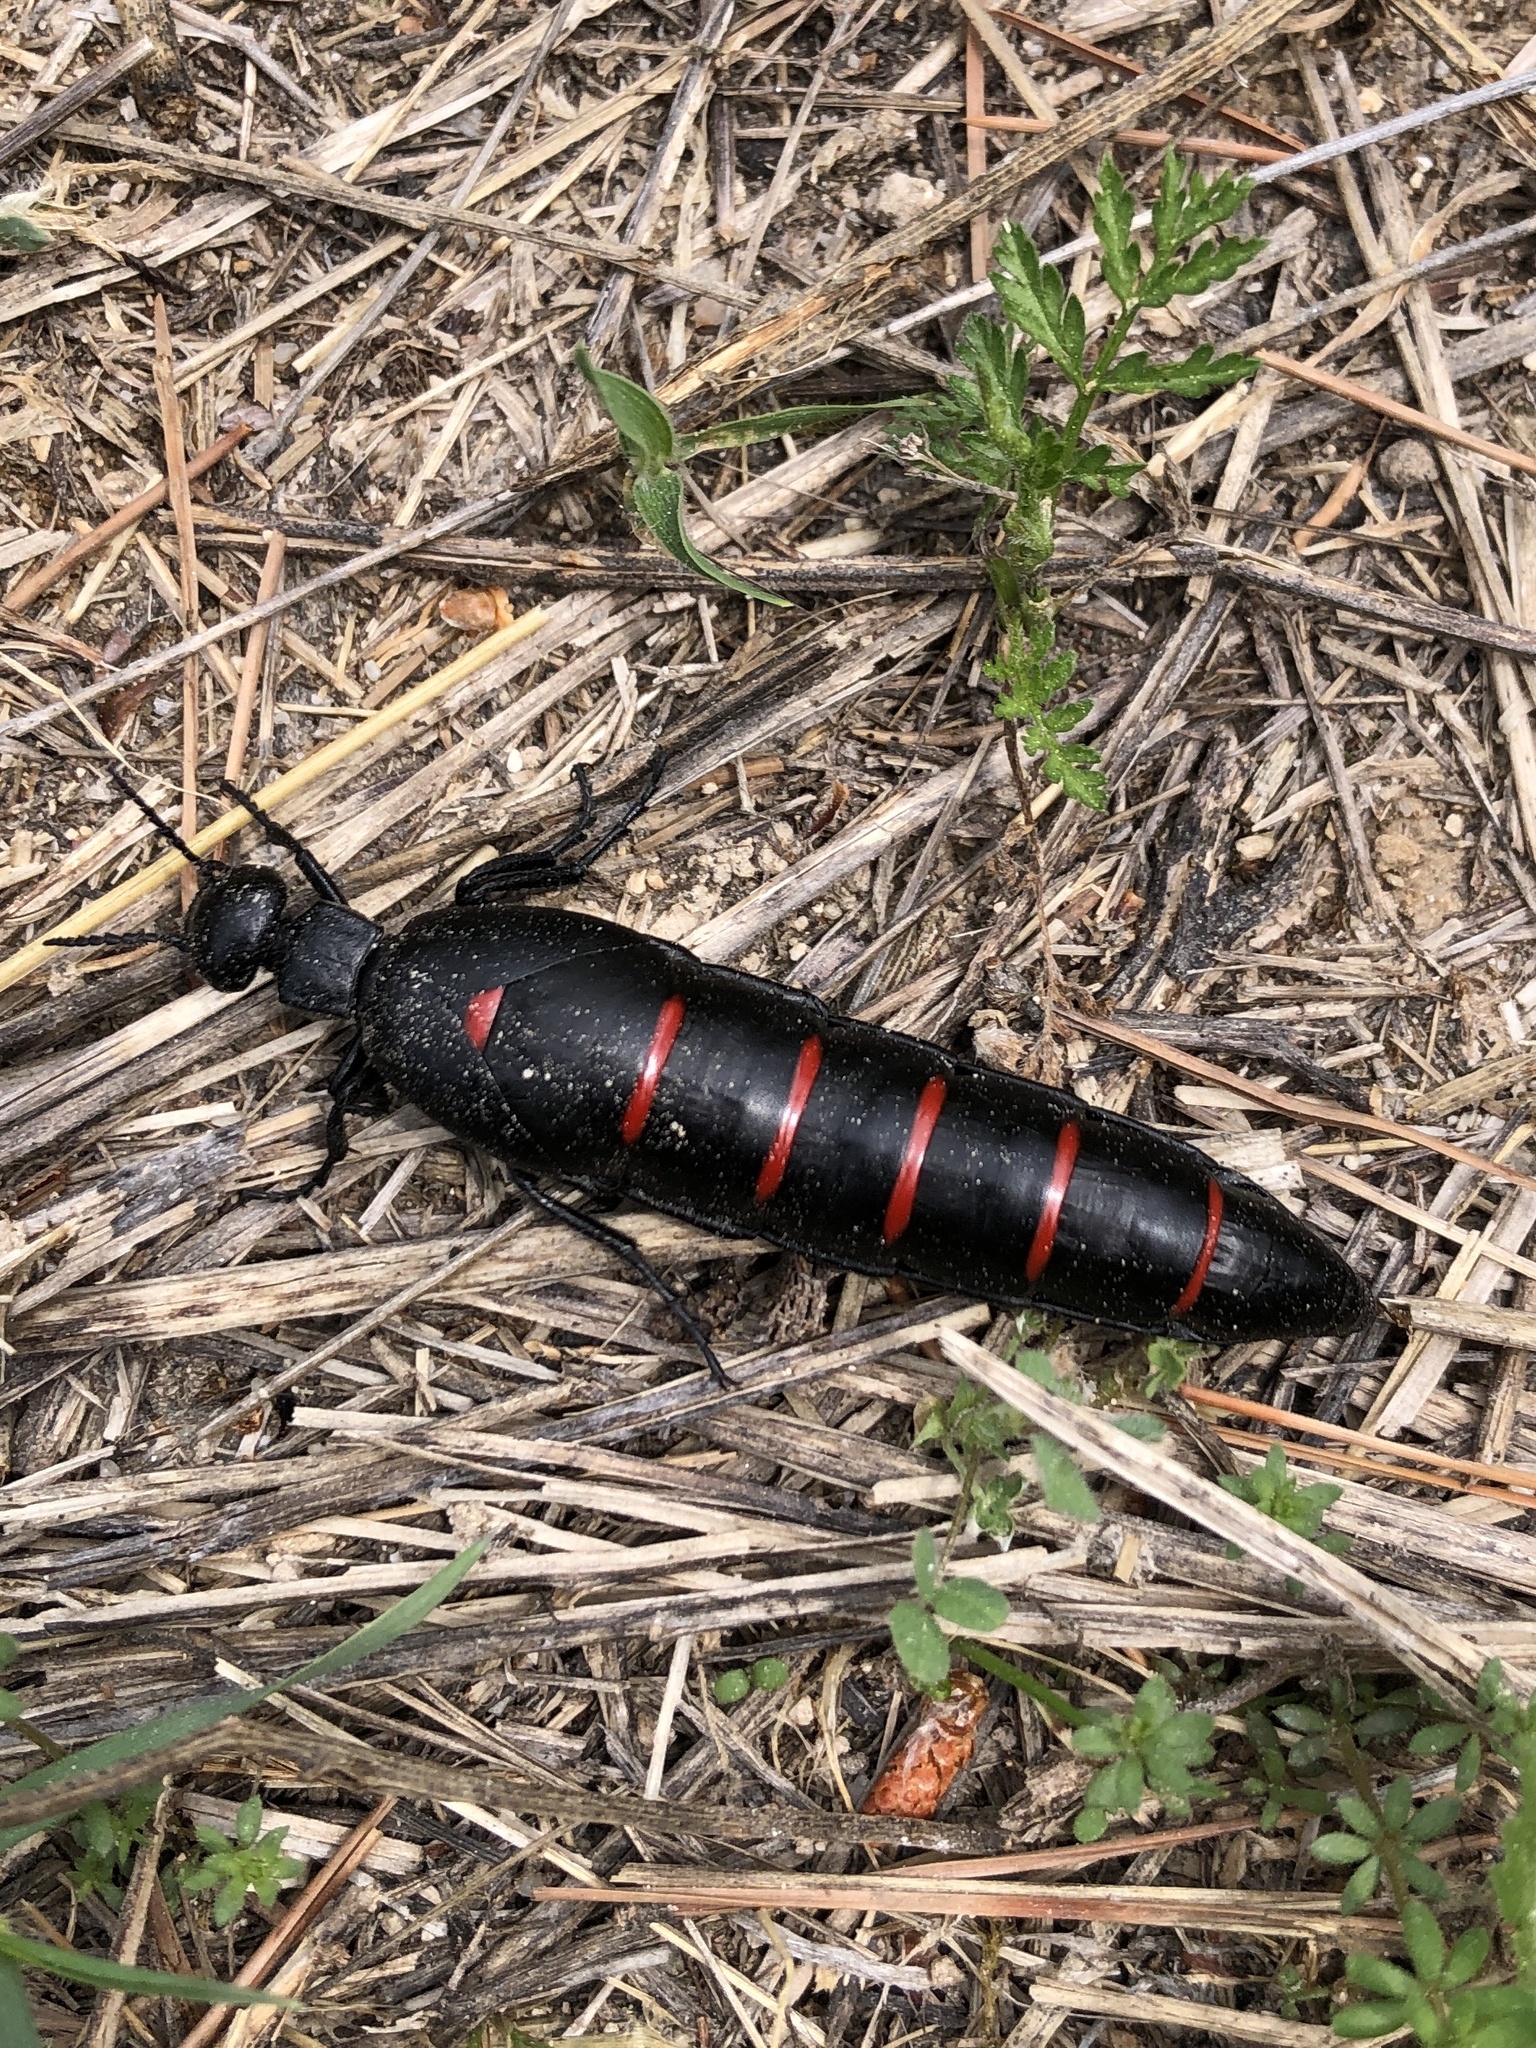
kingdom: Animalia
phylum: Arthropoda
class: Insecta
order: Coleoptera
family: Meloidae
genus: Berberomeloe
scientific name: Berberomeloe majalis
